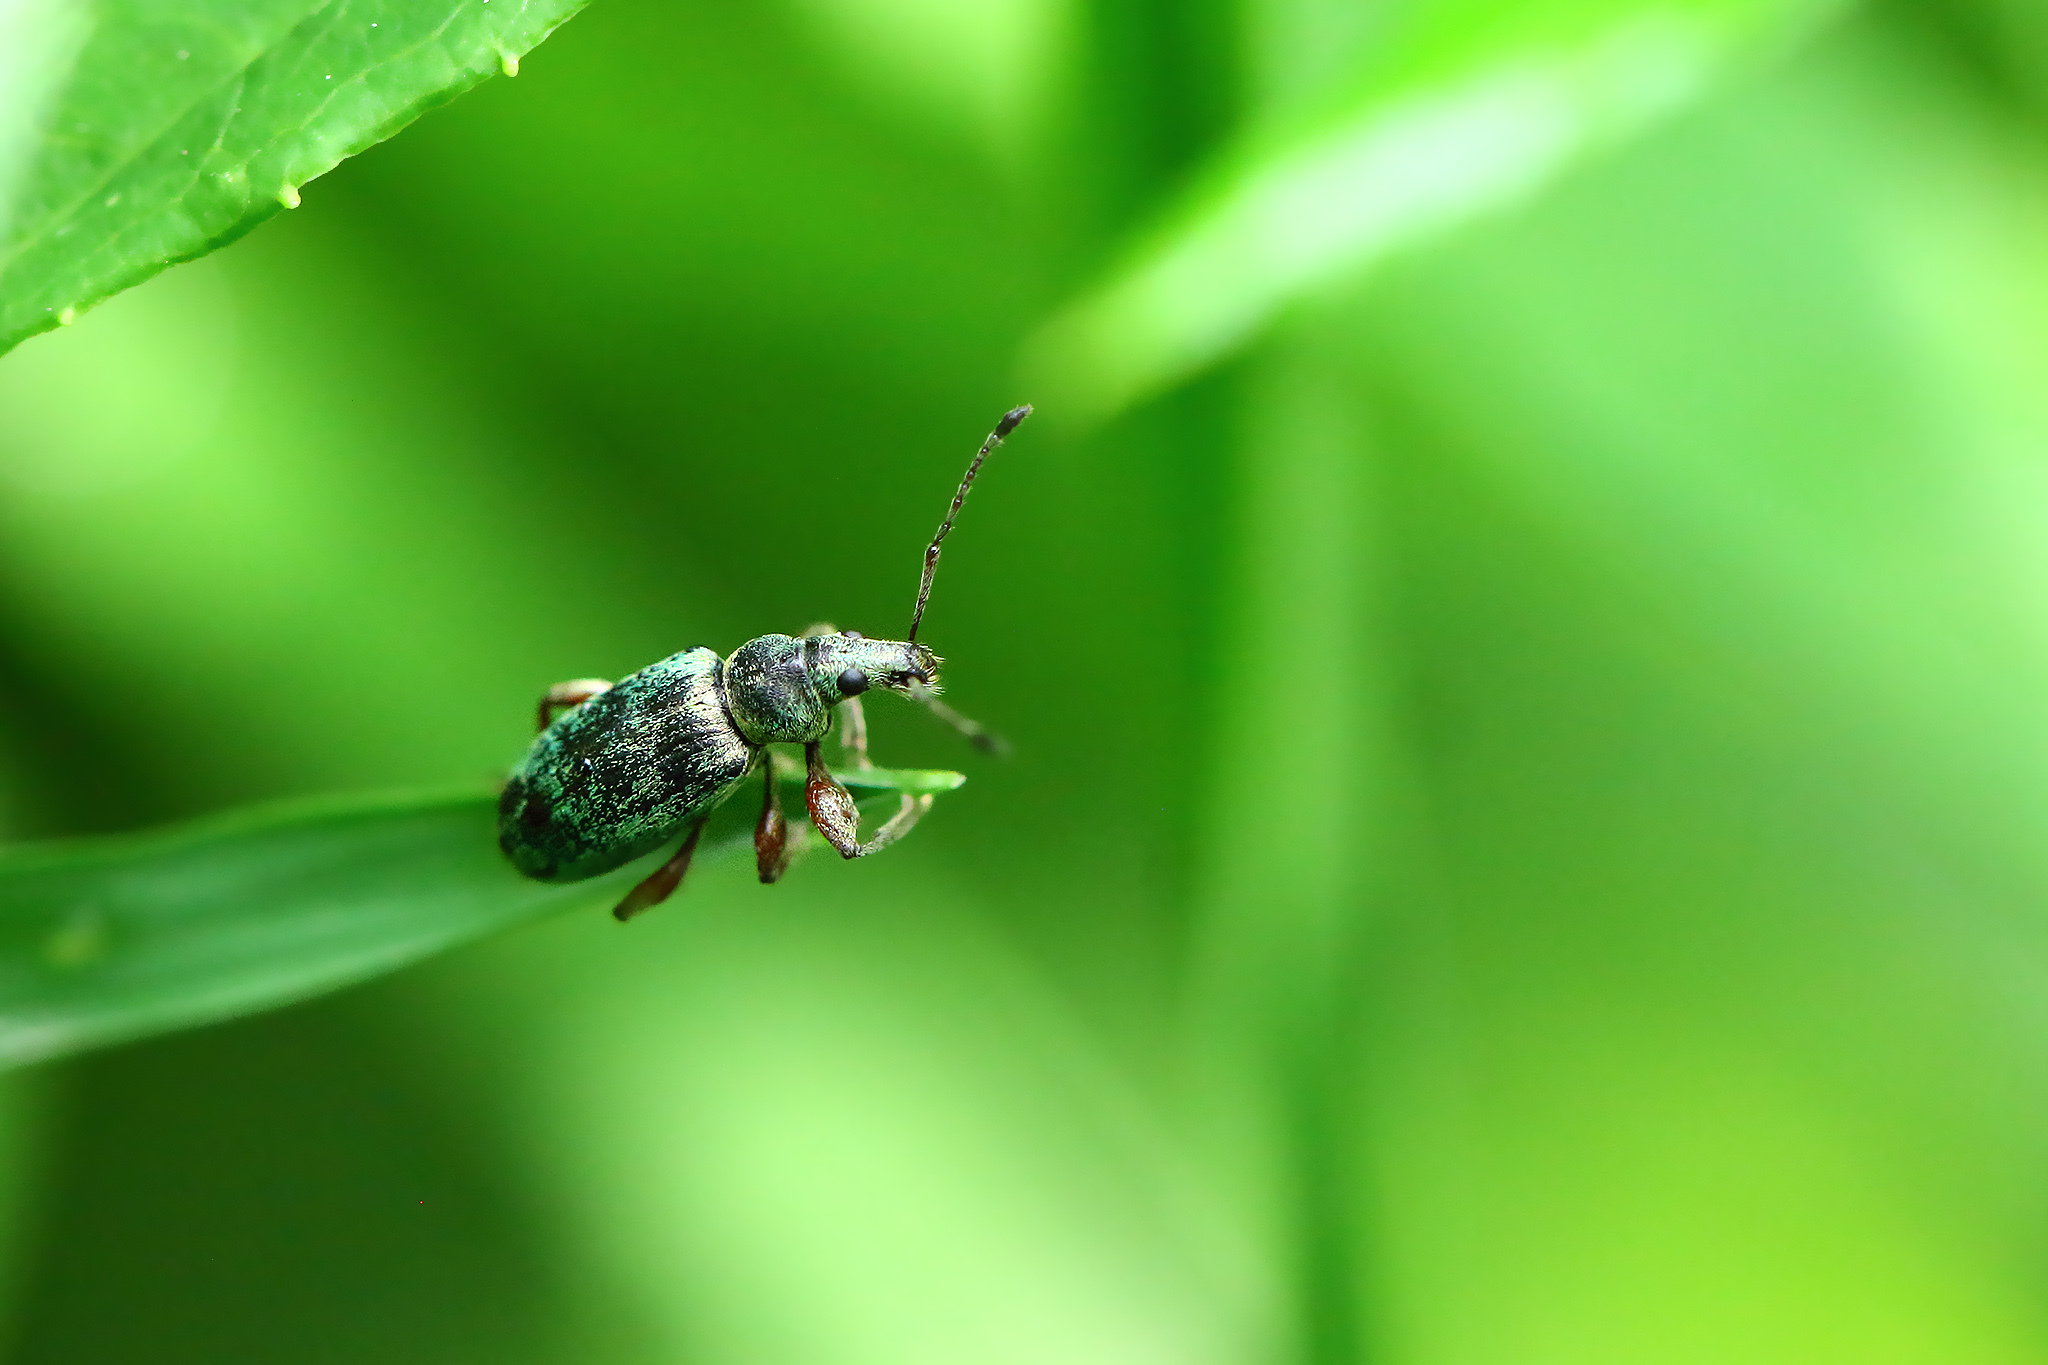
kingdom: Animalia
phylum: Arthropoda
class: Insecta
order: Coleoptera
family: Curculionidae
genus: Phyllobius
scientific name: Phyllobius pomaceus
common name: Green nettle weevil
